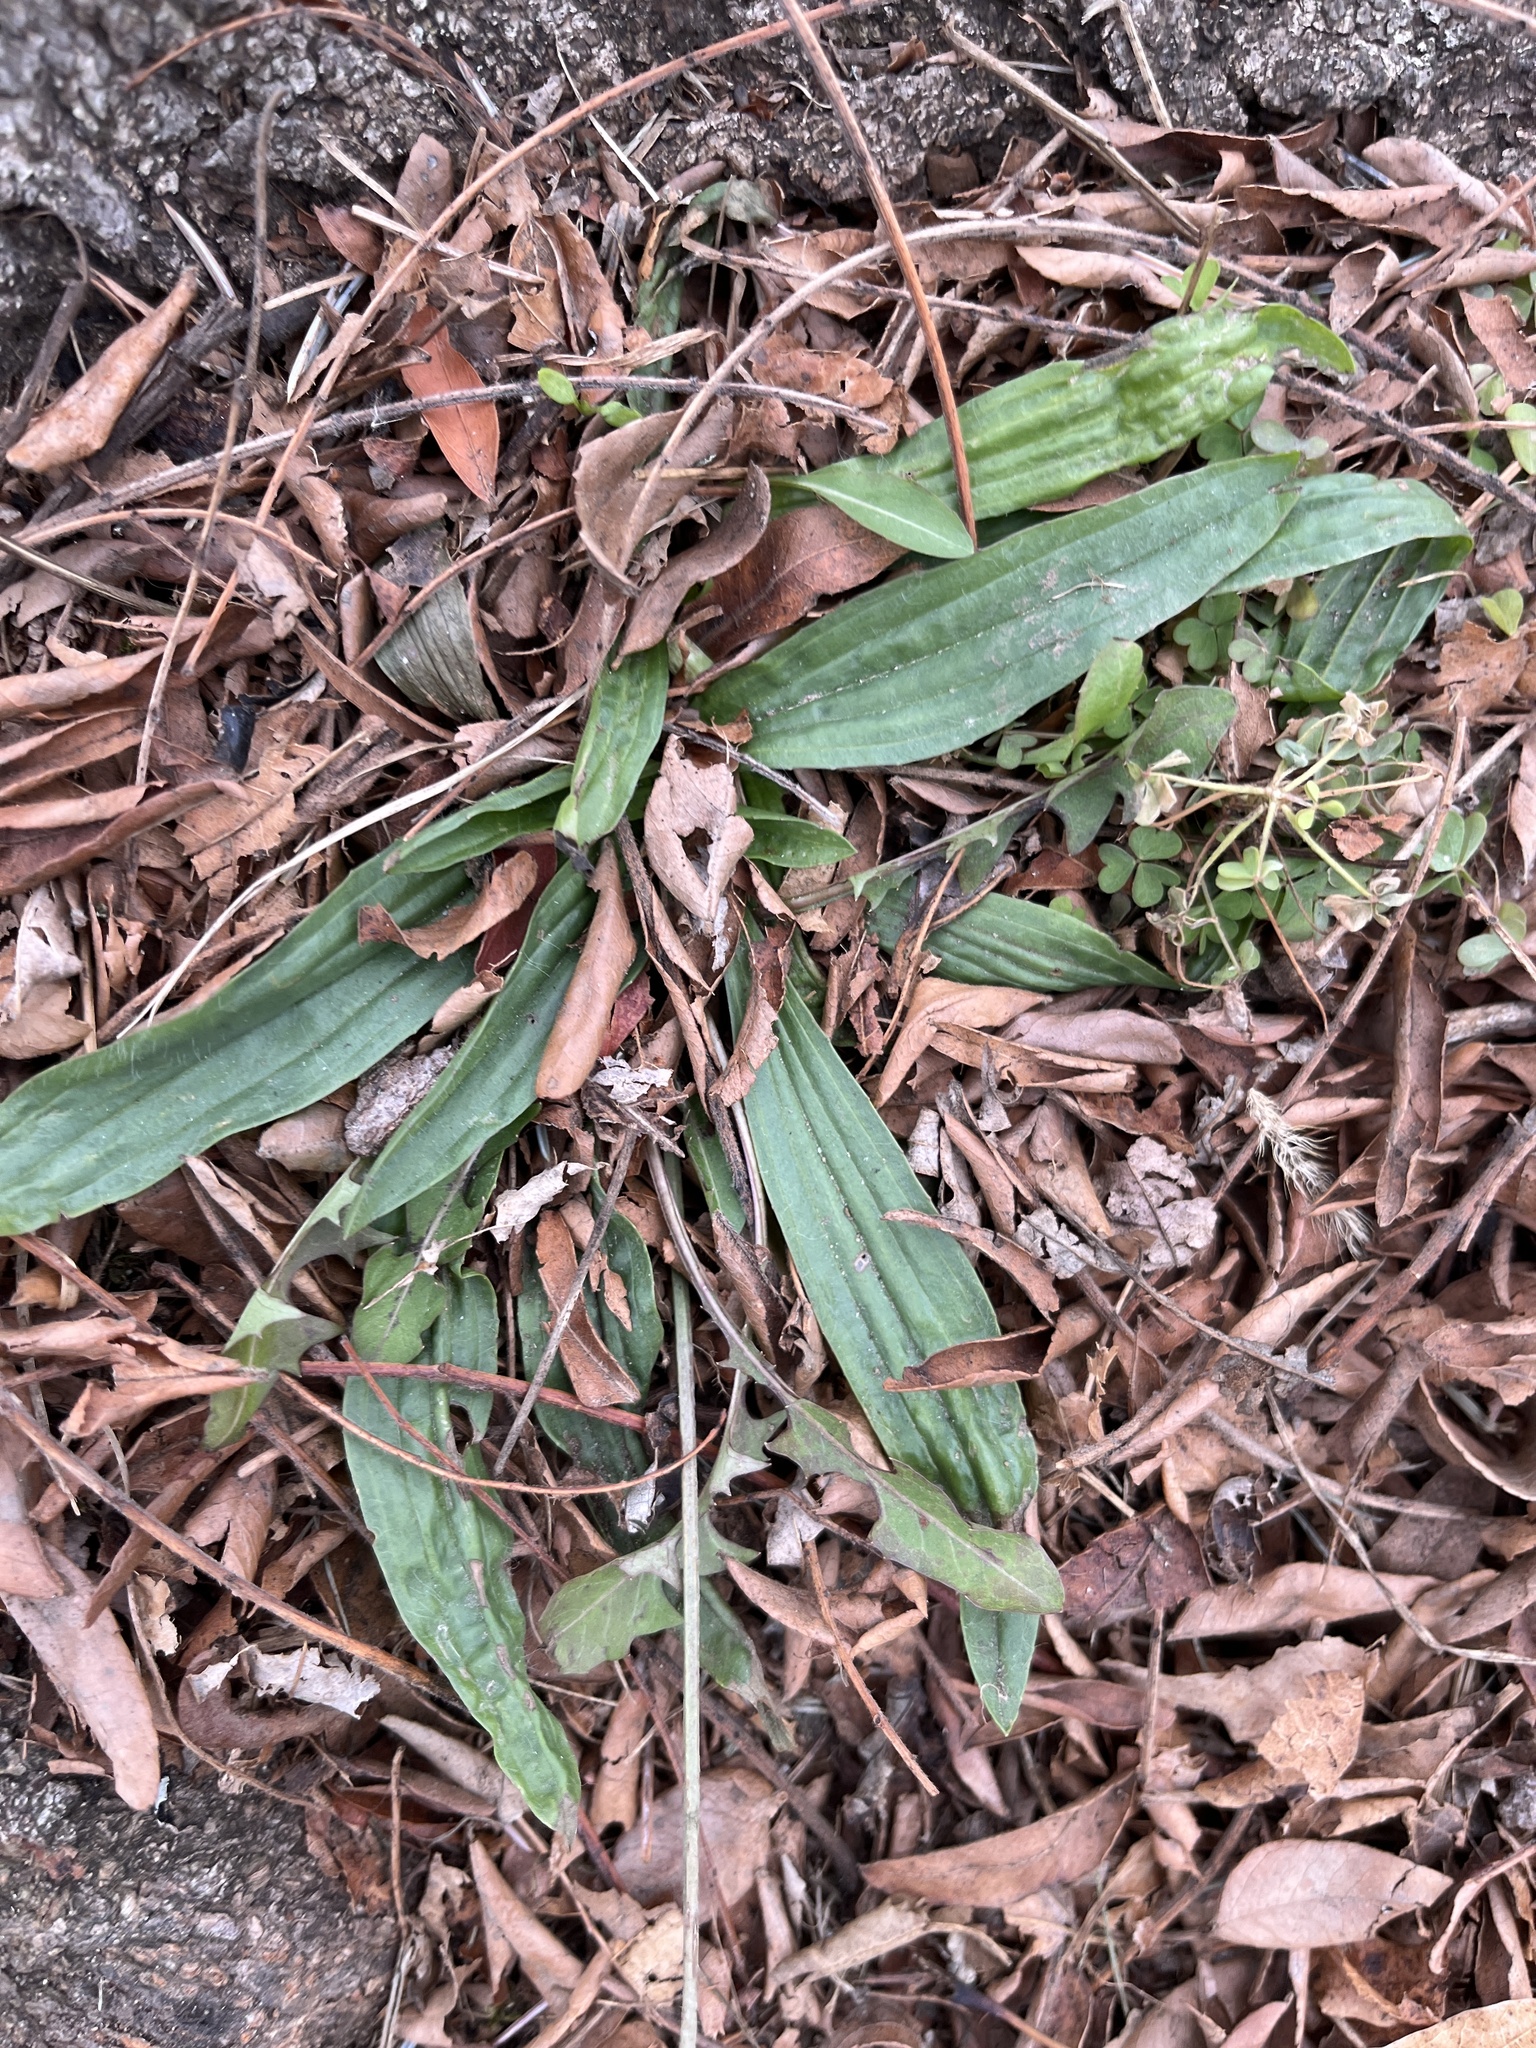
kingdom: Plantae
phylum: Tracheophyta
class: Magnoliopsida
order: Lamiales
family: Plantaginaceae
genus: Plantago
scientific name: Plantago lanceolata
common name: Ribwort plantain
